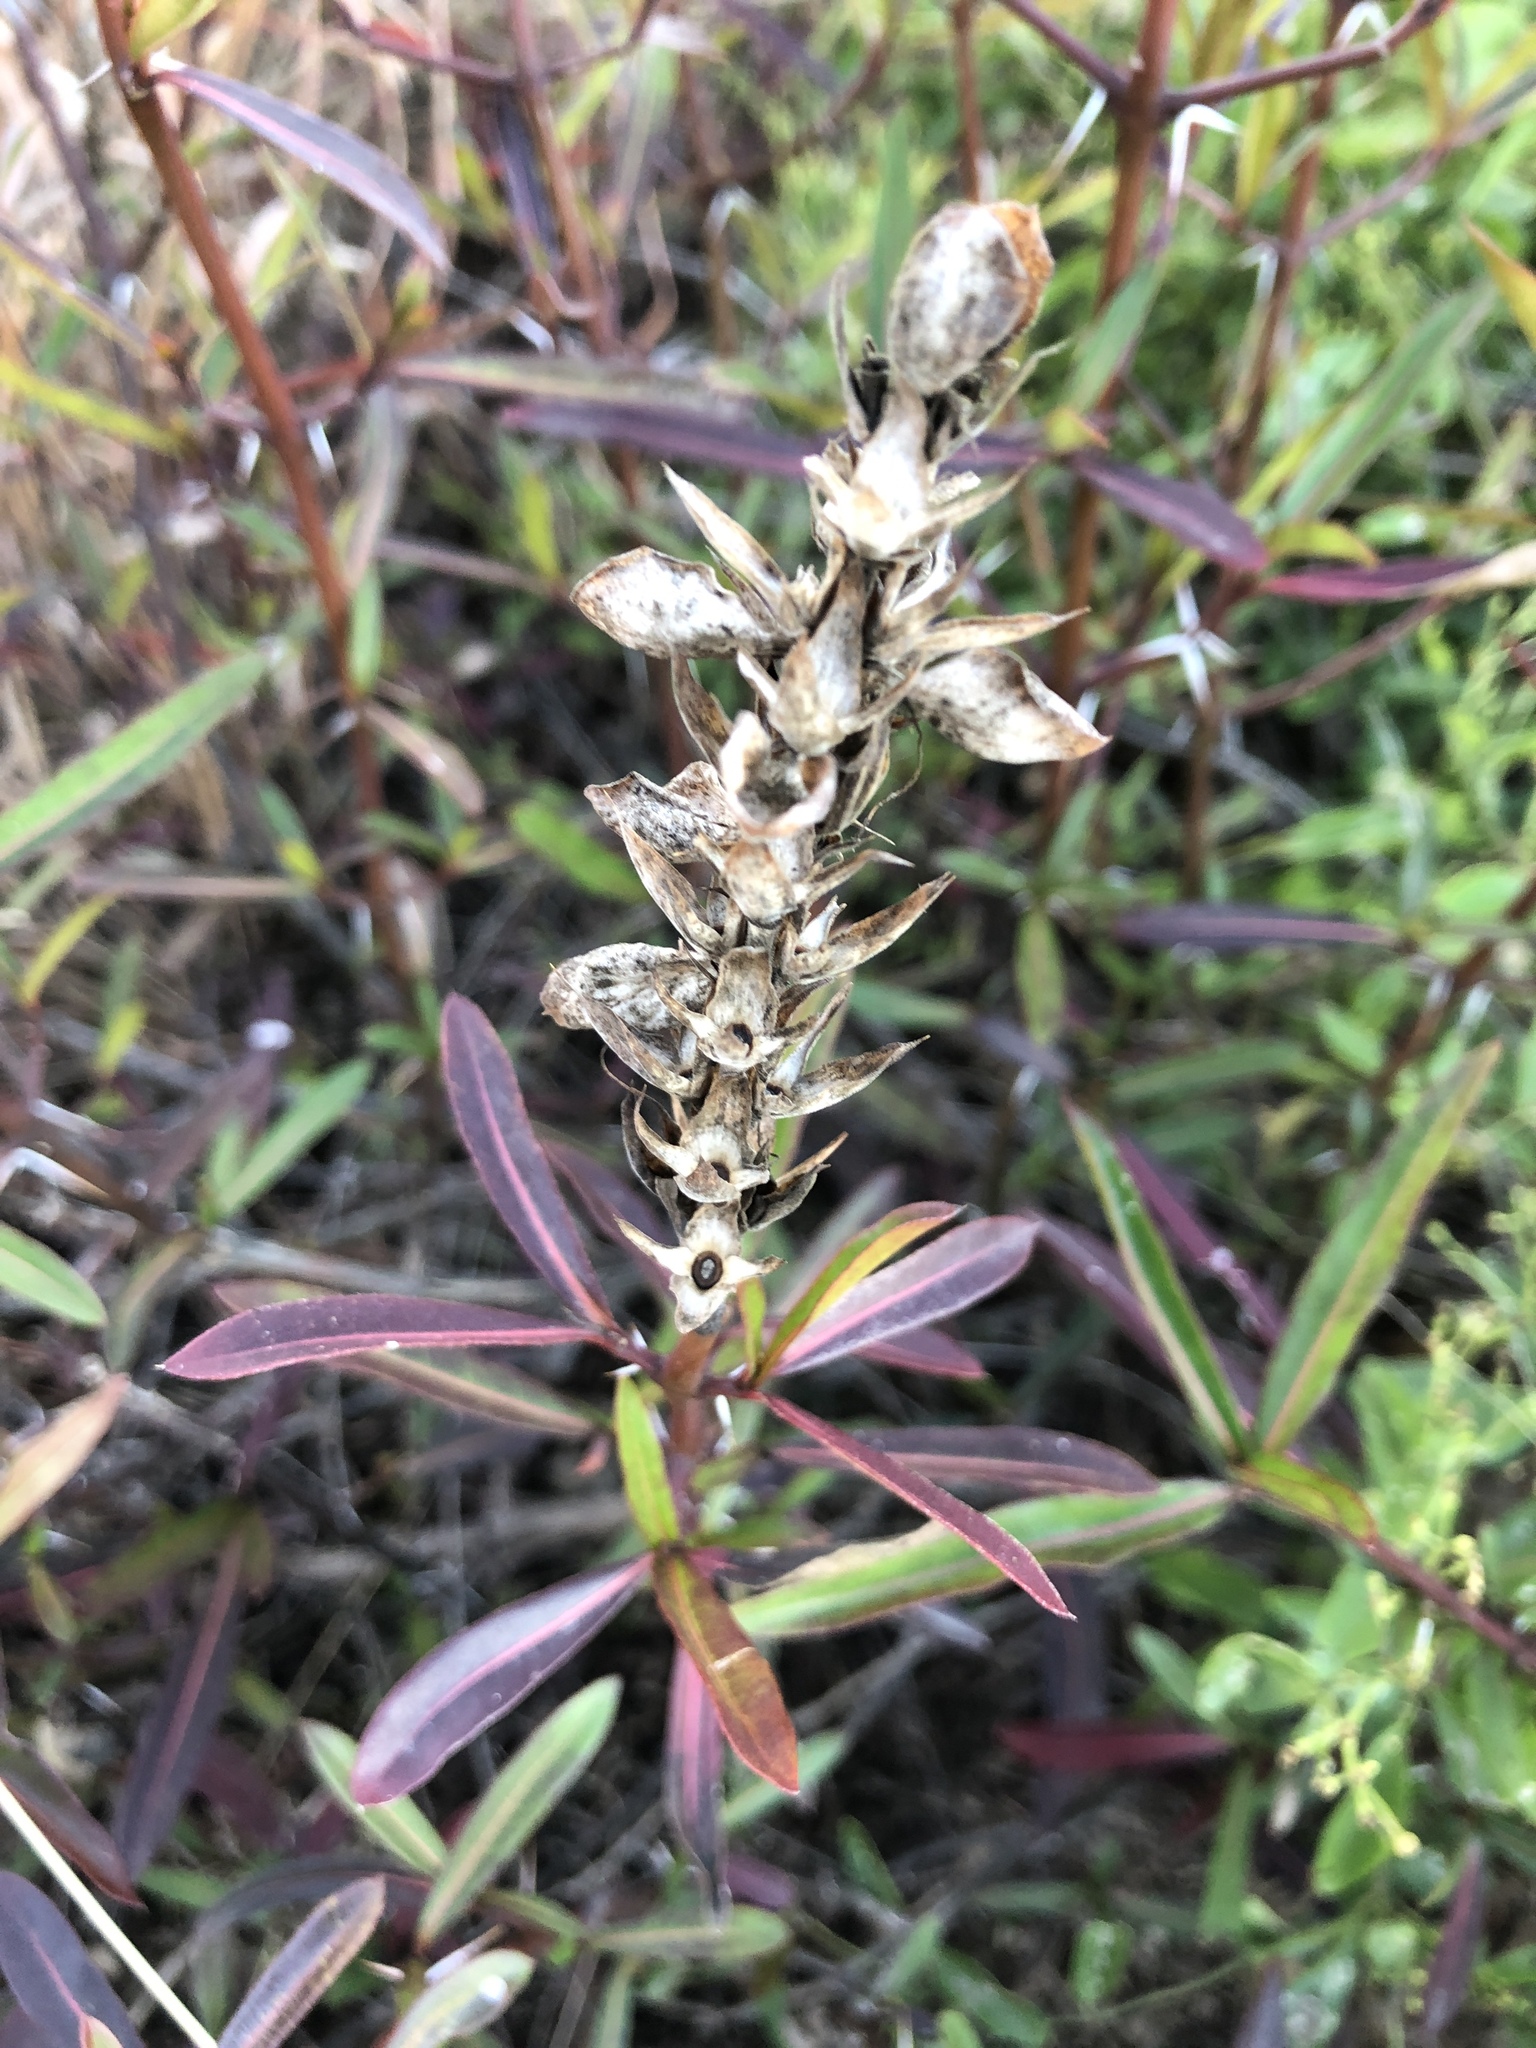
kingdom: Plantae
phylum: Tracheophyta
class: Magnoliopsida
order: Lamiales
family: Acanthaceae
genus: Barleria
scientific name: Barleria lupulina
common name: Hophead philippine violet
